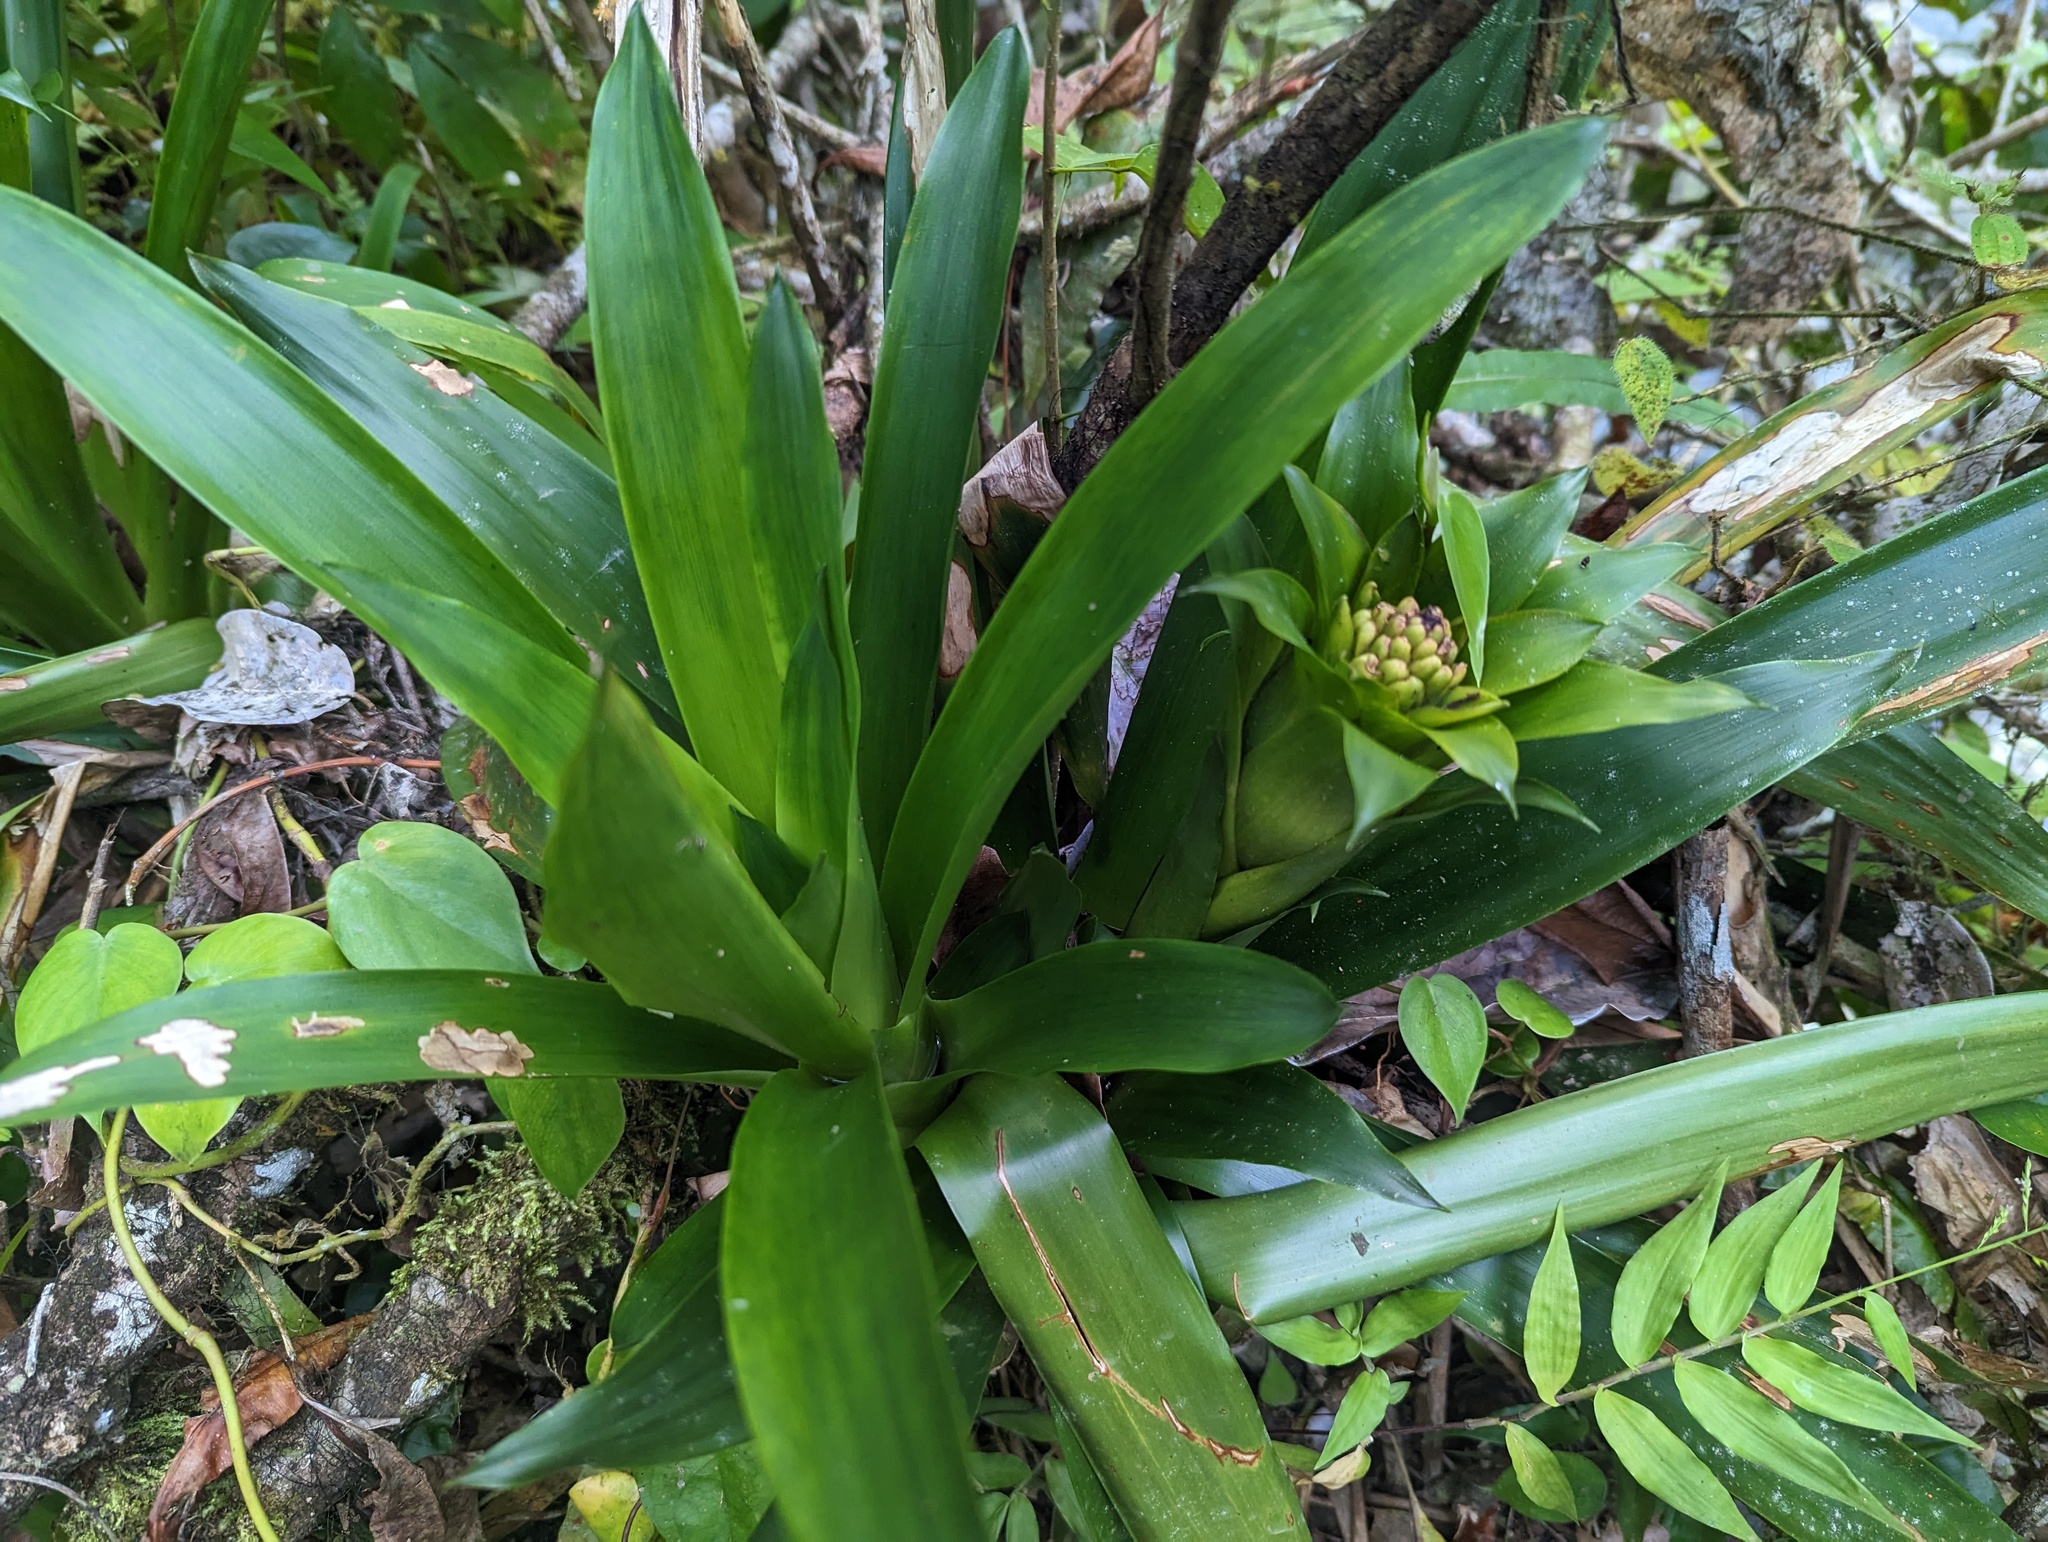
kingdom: Plantae
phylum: Tracheophyta
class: Liliopsida
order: Poales
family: Bromeliaceae
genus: Guzmania
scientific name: Guzmania lingulata
